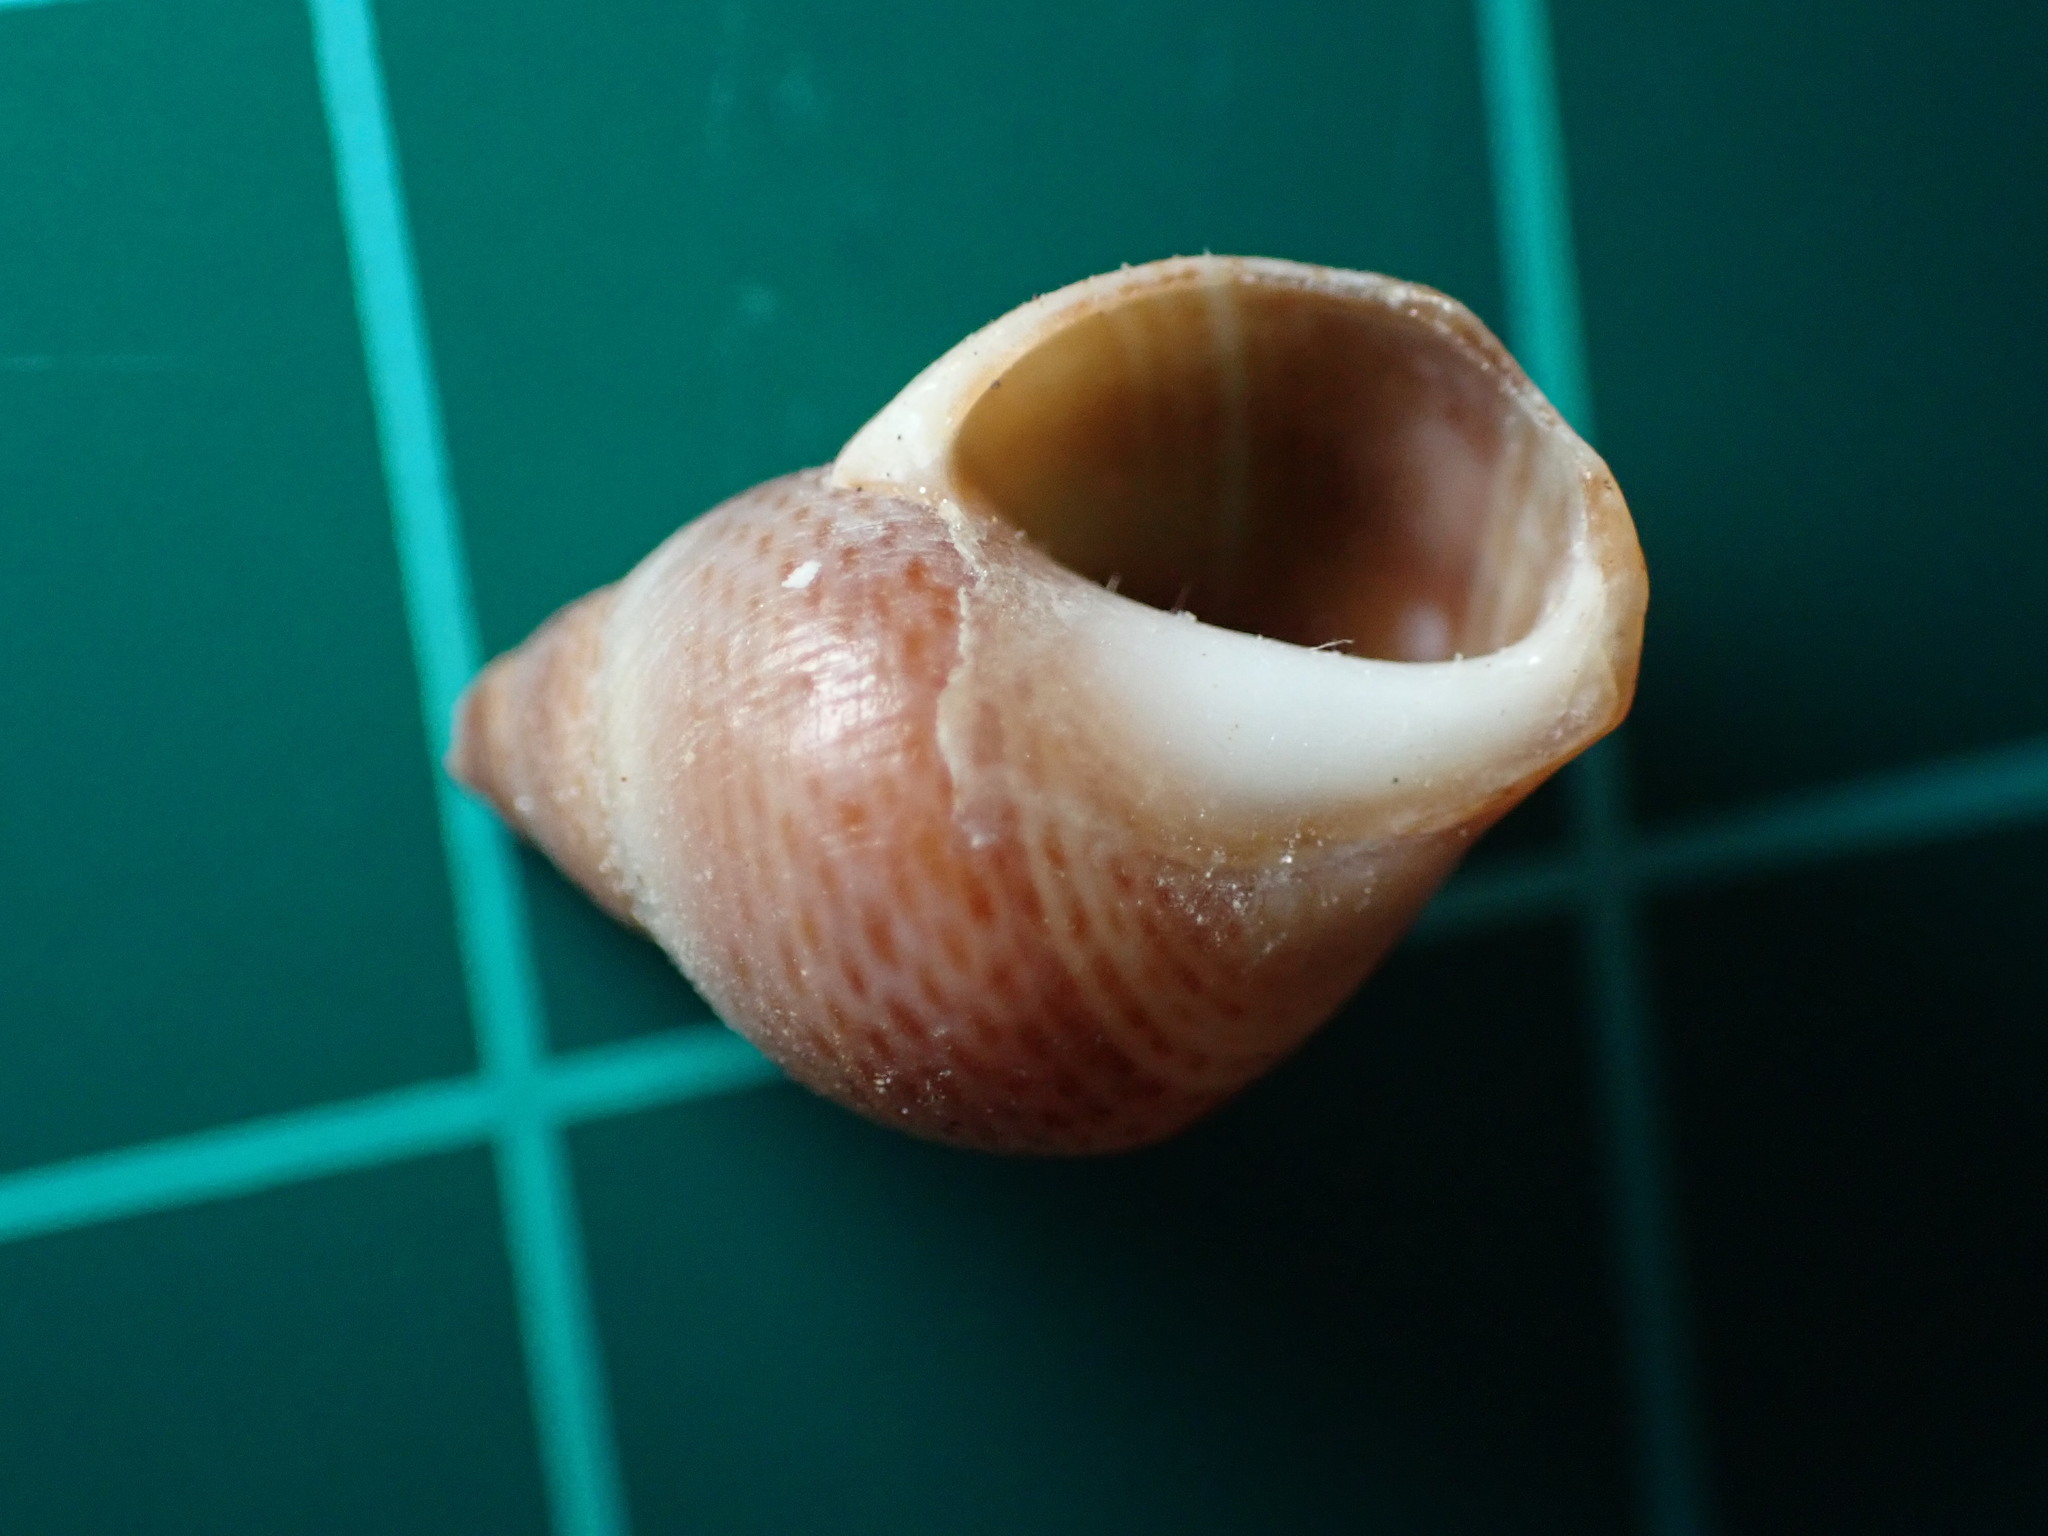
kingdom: Animalia
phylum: Mollusca
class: Gastropoda
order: Littorinimorpha
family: Littorinidae
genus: Littoraria
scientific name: Littoraria pintado
